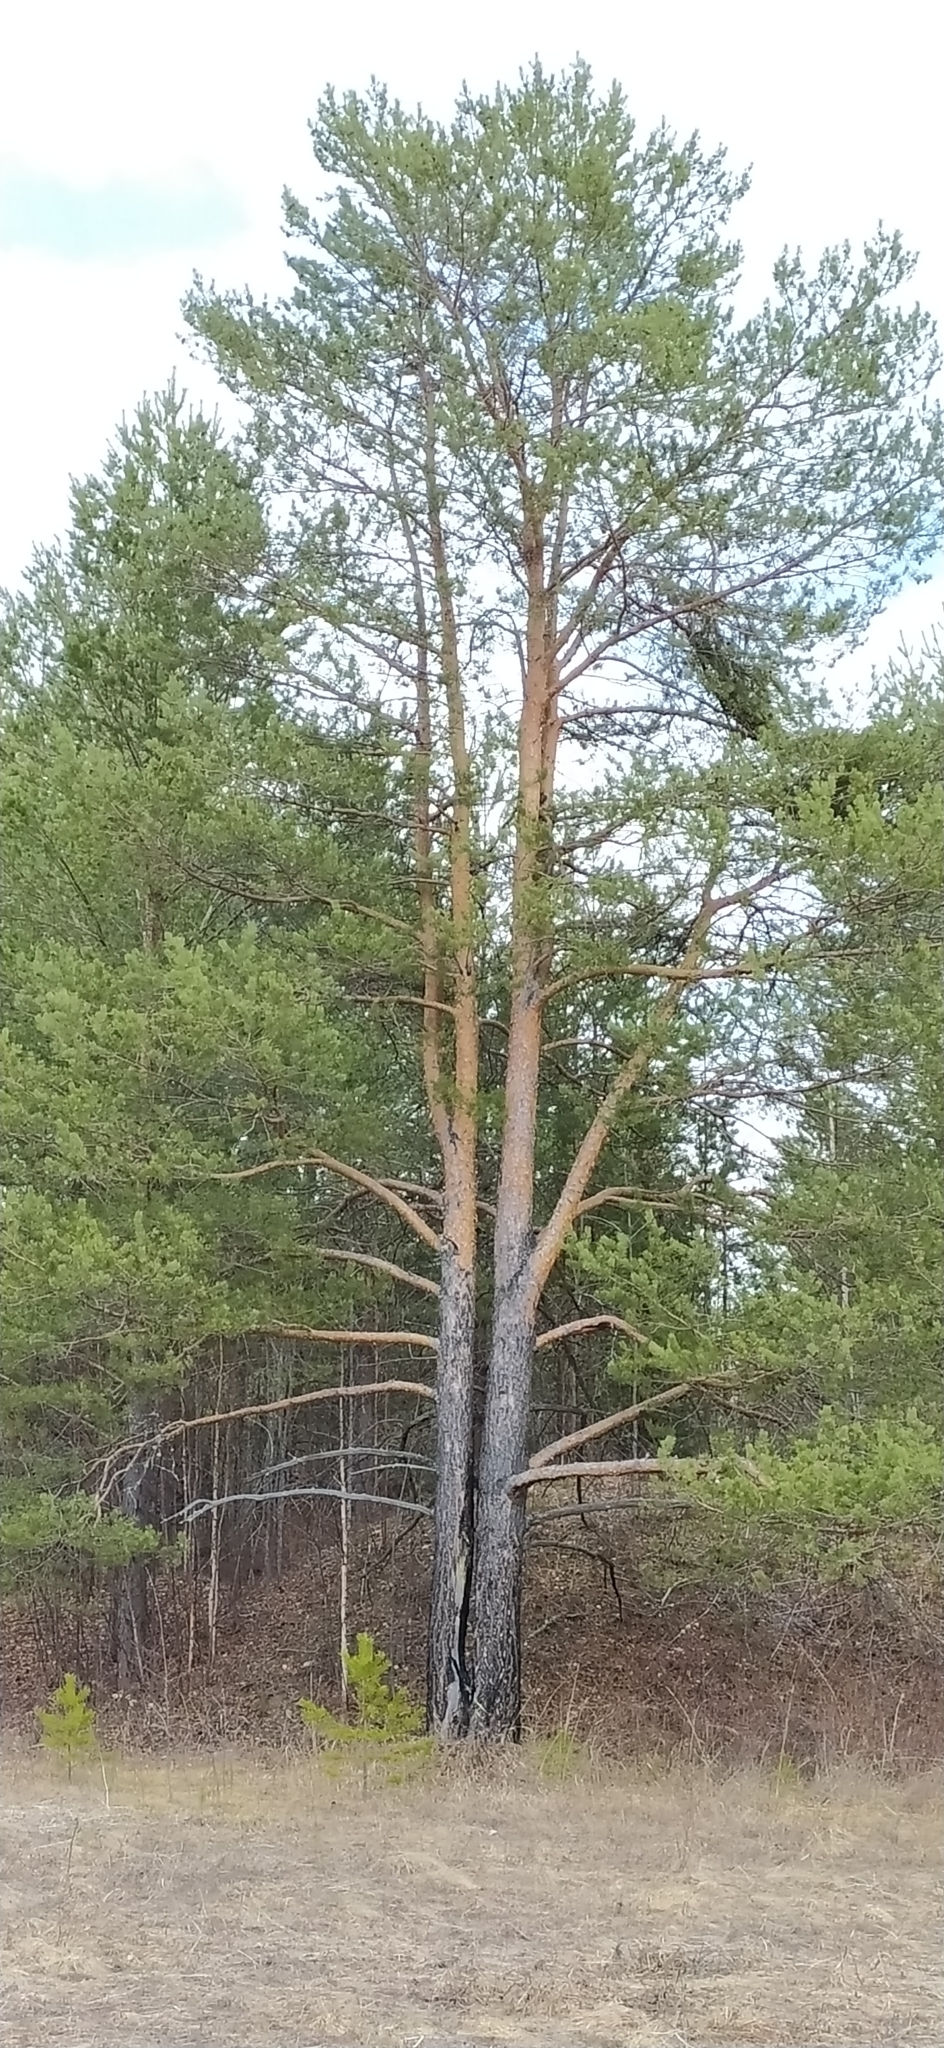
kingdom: Plantae
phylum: Tracheophyta
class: Pinopsida
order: Pinales
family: Pinaceae
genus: Pinus
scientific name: Pinus sylvestris
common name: Scots pine
